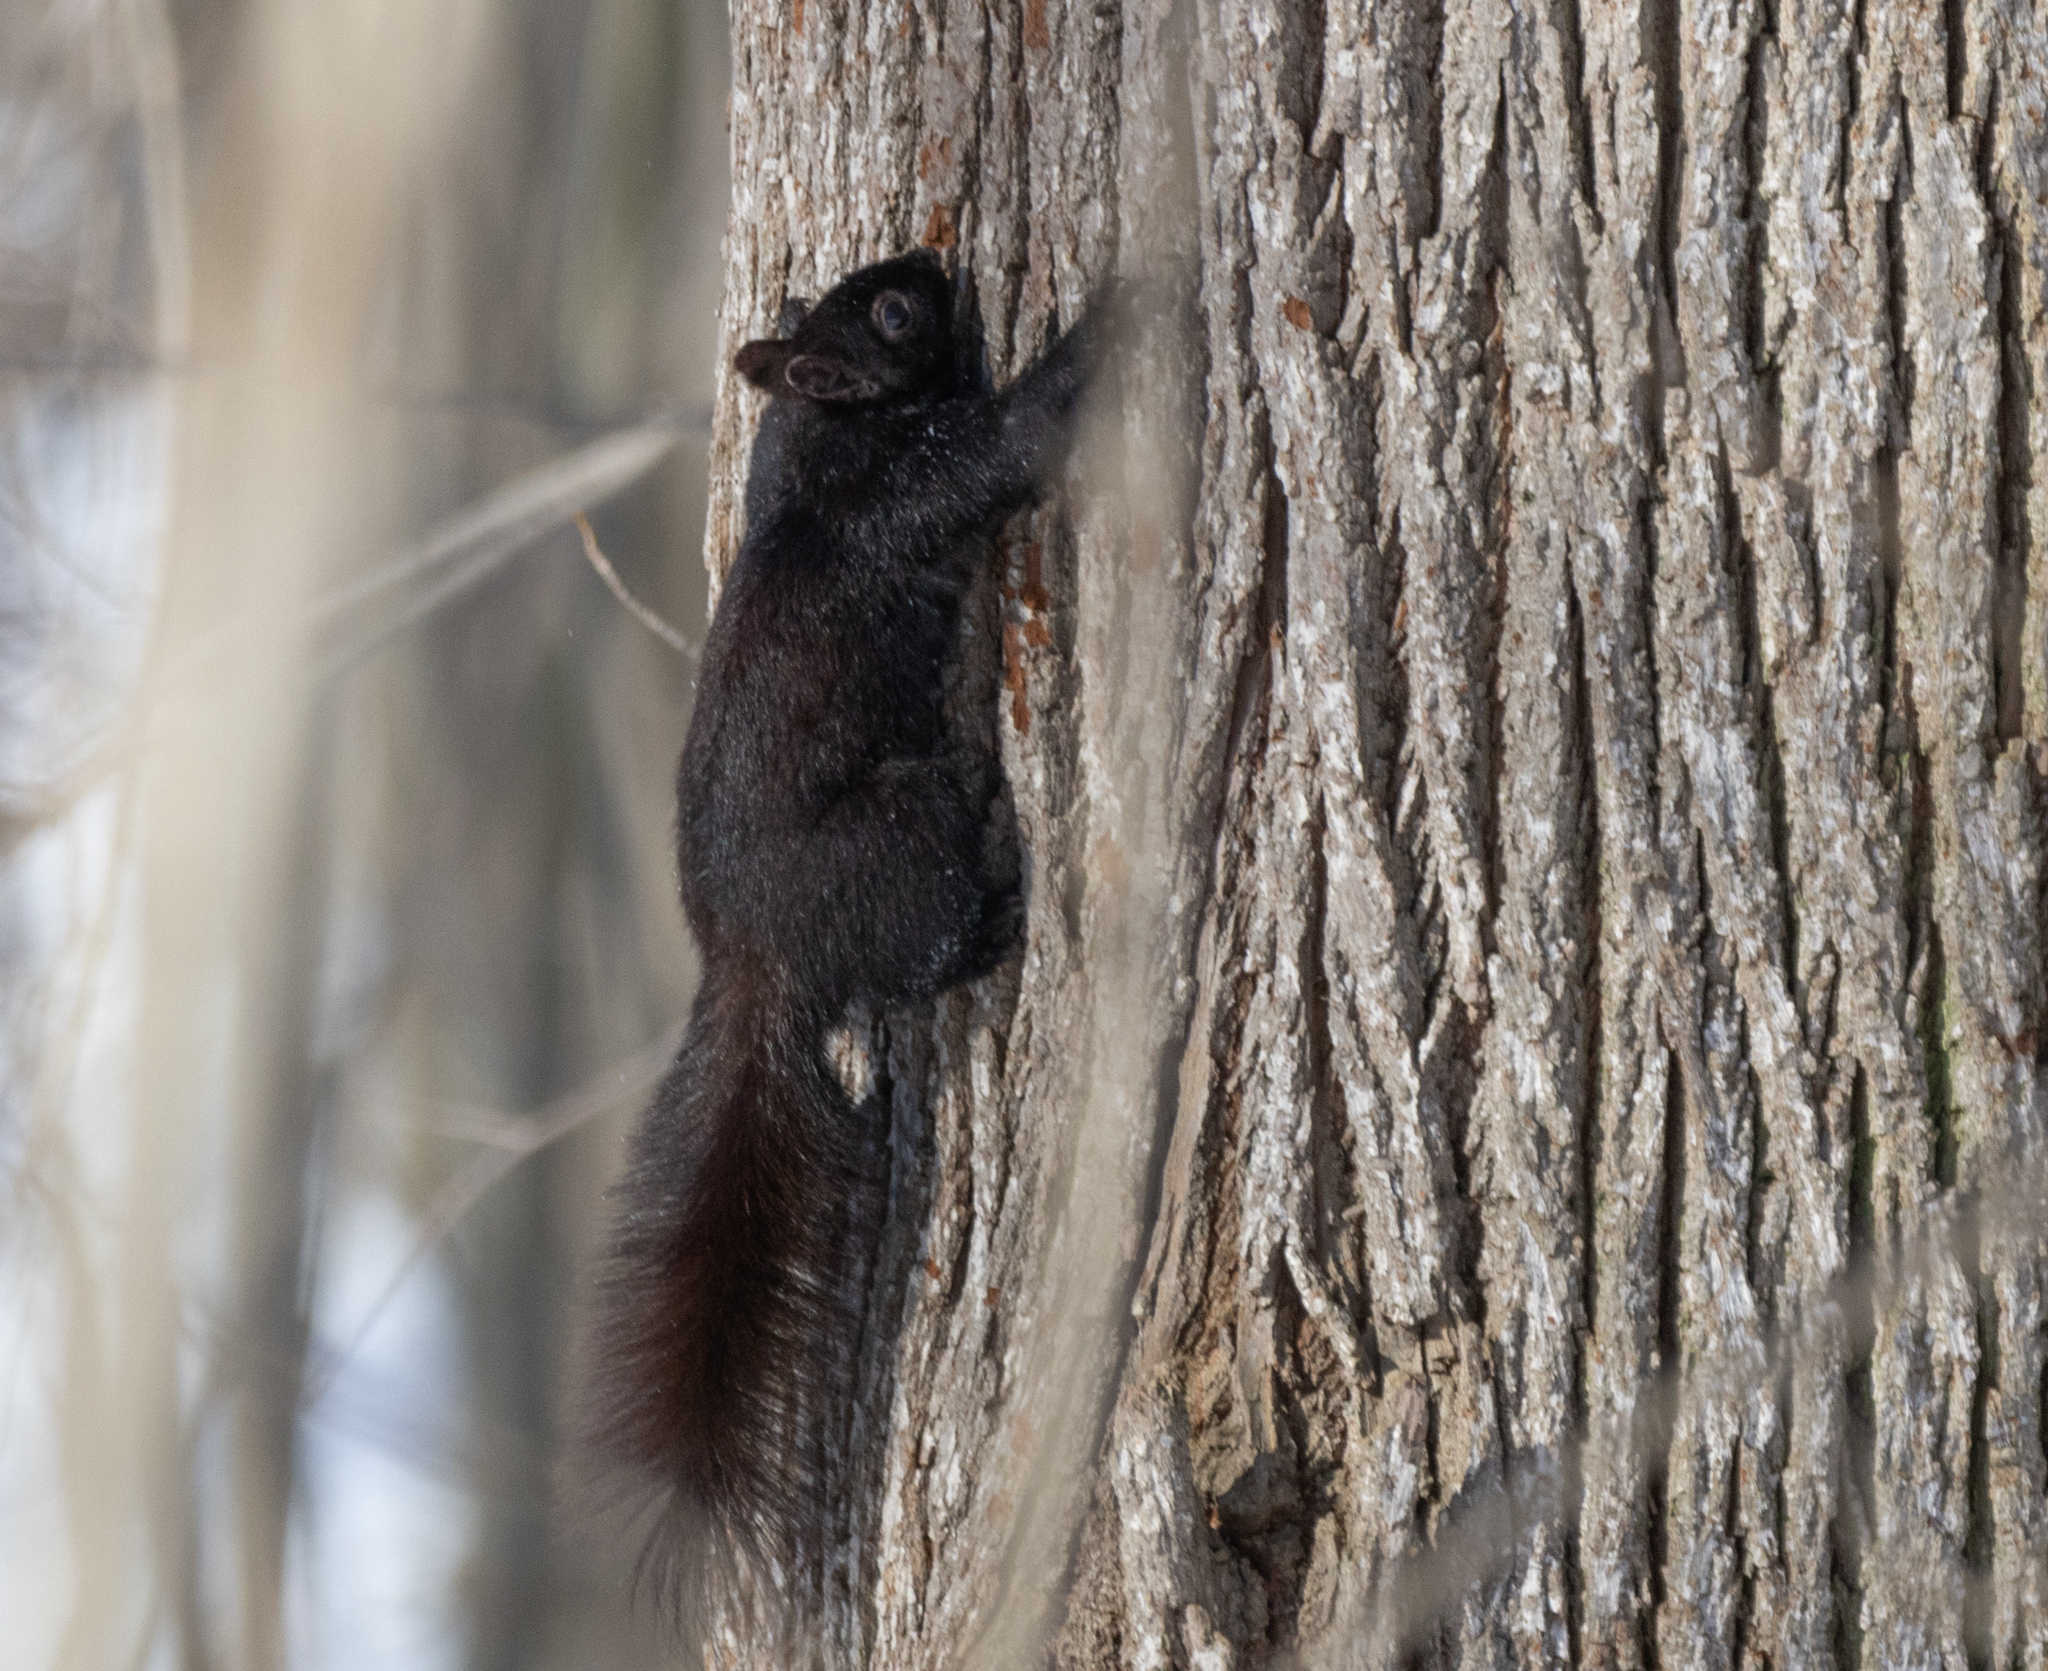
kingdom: Animalia
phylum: Chordata
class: Mammalia
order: Rodentia
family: Sciuridae
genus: Sciurus
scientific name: Sciurus carolinensis
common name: Eastern gray squirrel
